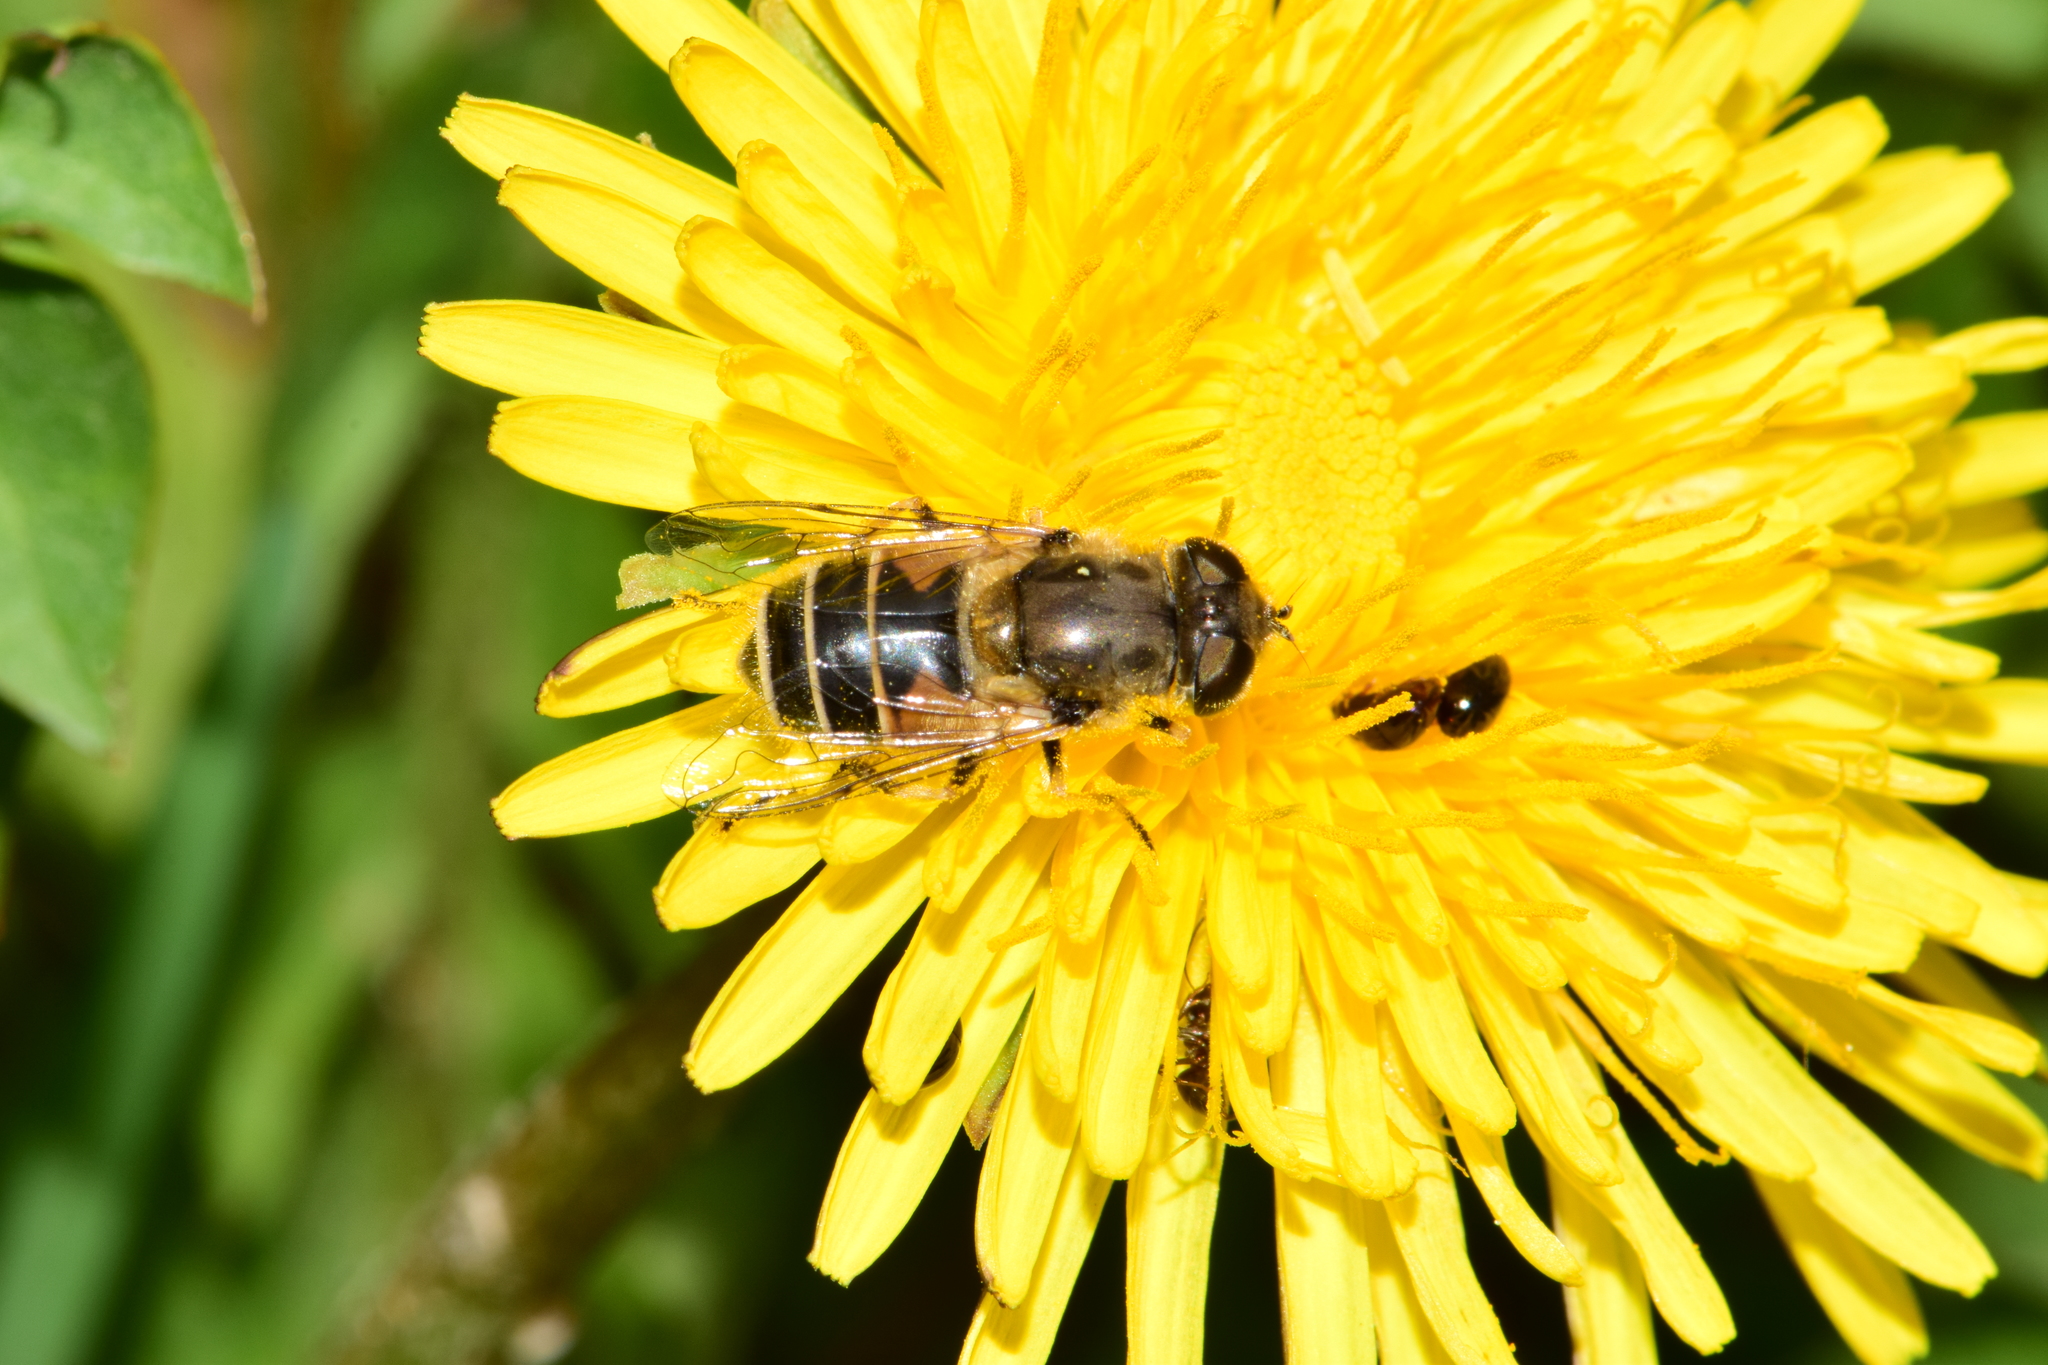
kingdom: Animalia
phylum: Arthropoda
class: Insecta
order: Diptera
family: Syrphidae
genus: Eristalis
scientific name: Eristalis arbustorum
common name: Hover fly
